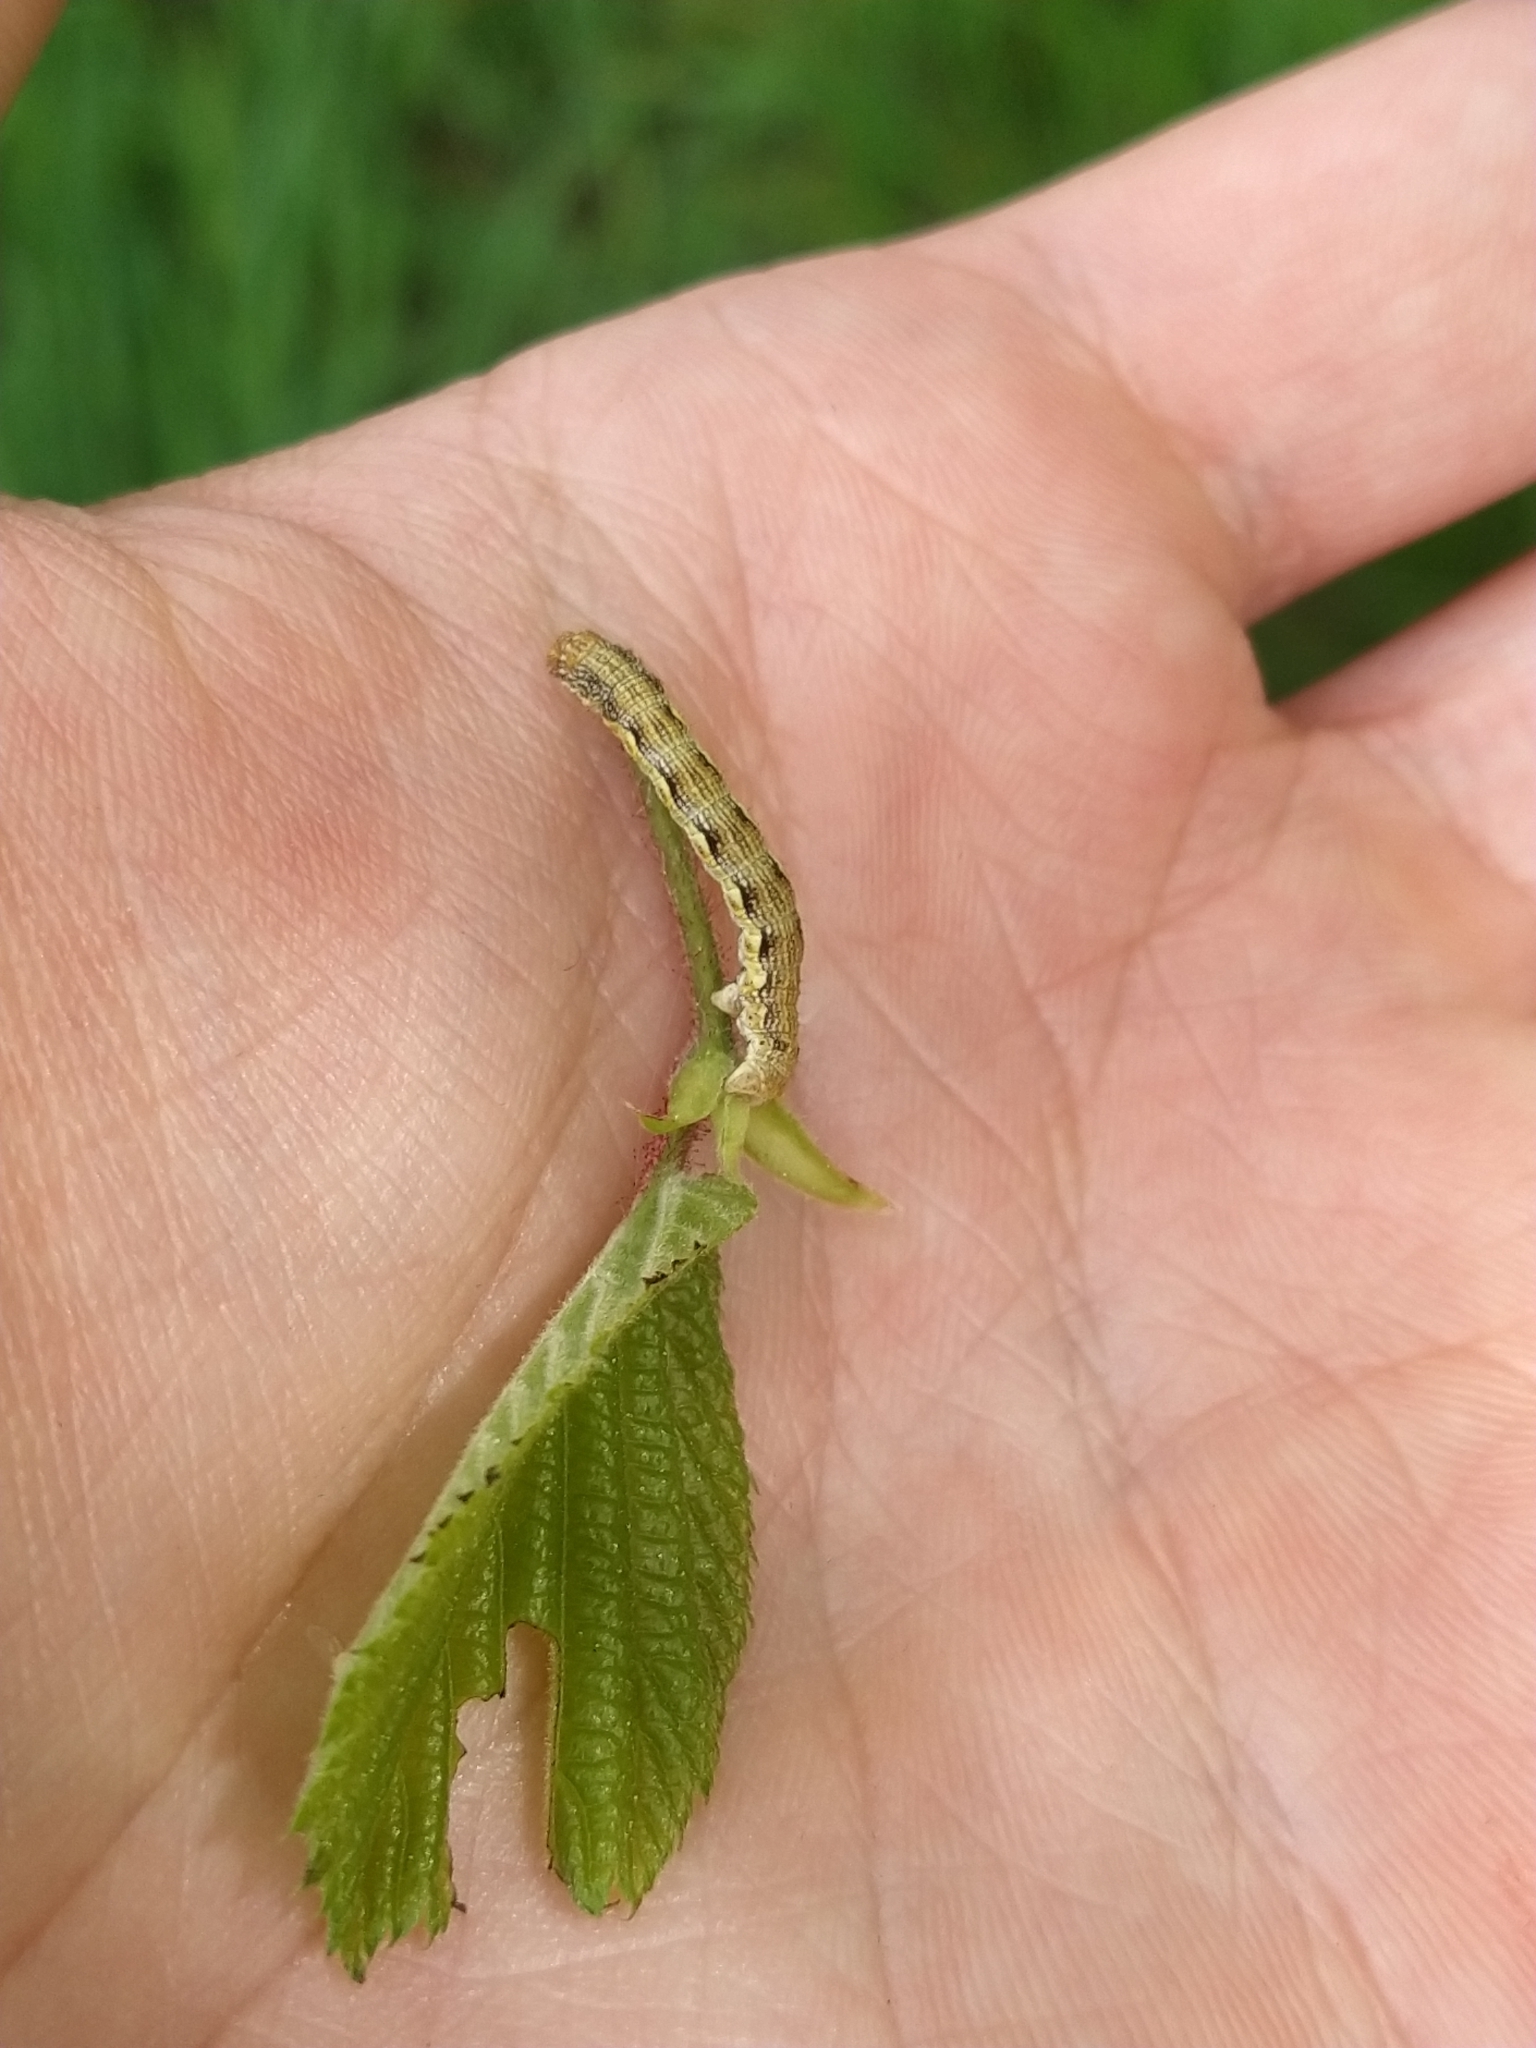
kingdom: Animalia
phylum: Arthropoda
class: Insecta
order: Lepidoptera
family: Geometridae
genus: Erannis
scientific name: Erannis defoliaria
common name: Mottled umber
